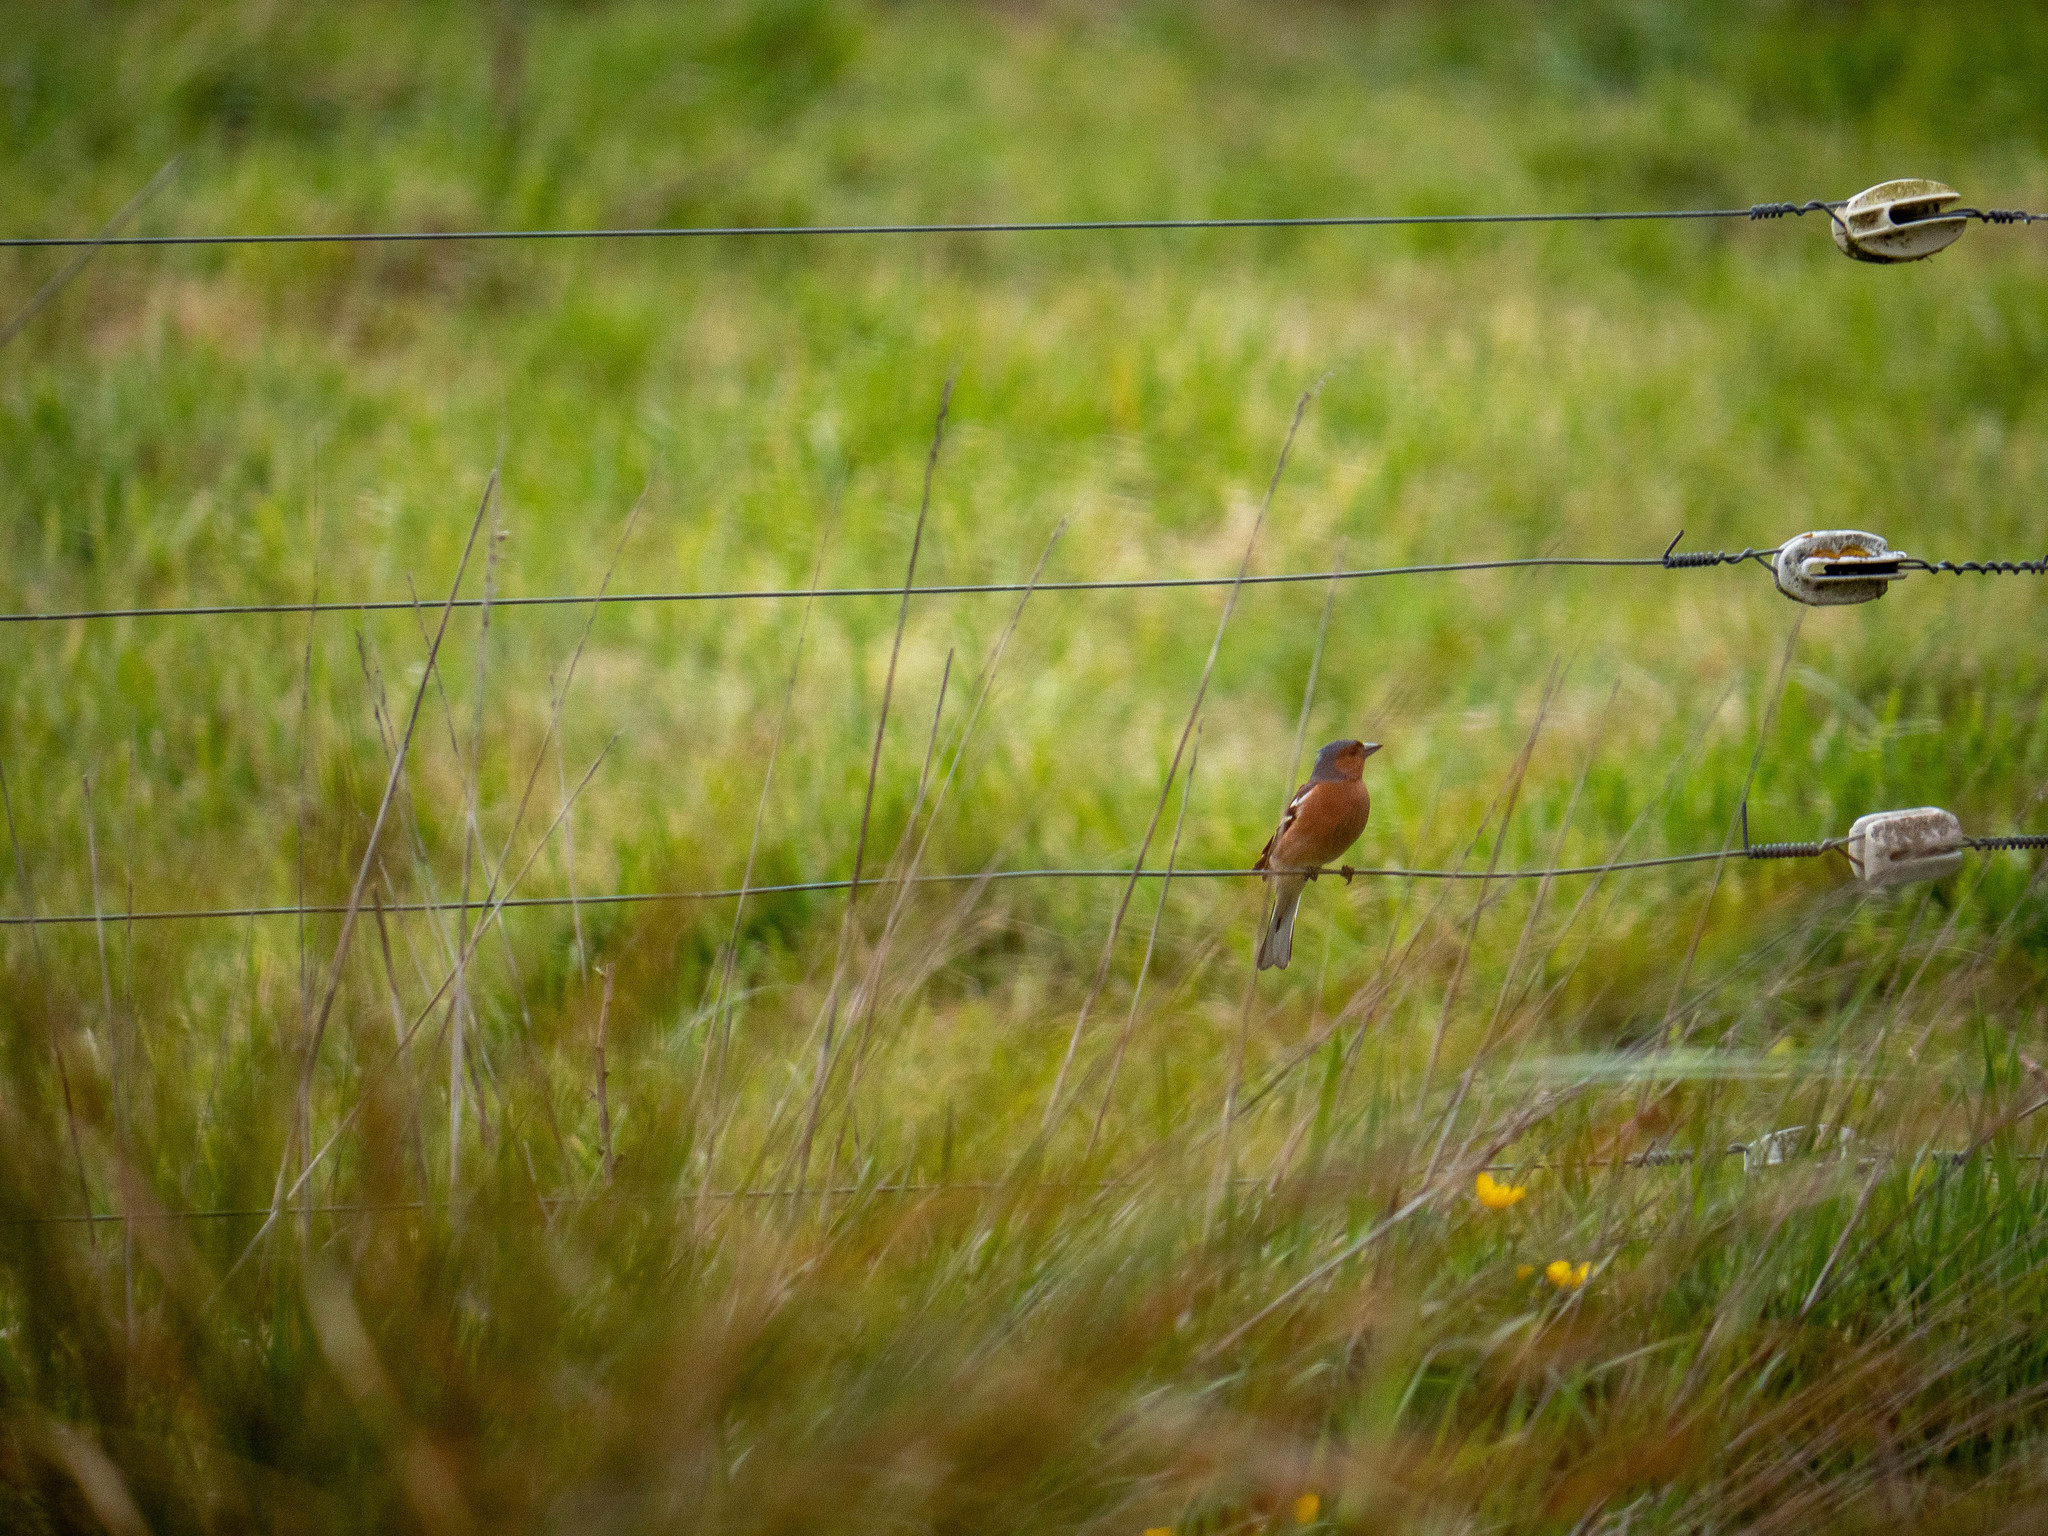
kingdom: Animalia
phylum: Chordata
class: Aves
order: Passeriformes
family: Fringillidae
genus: Fringilla
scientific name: Fringilla coelebs
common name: Common chaffinch
